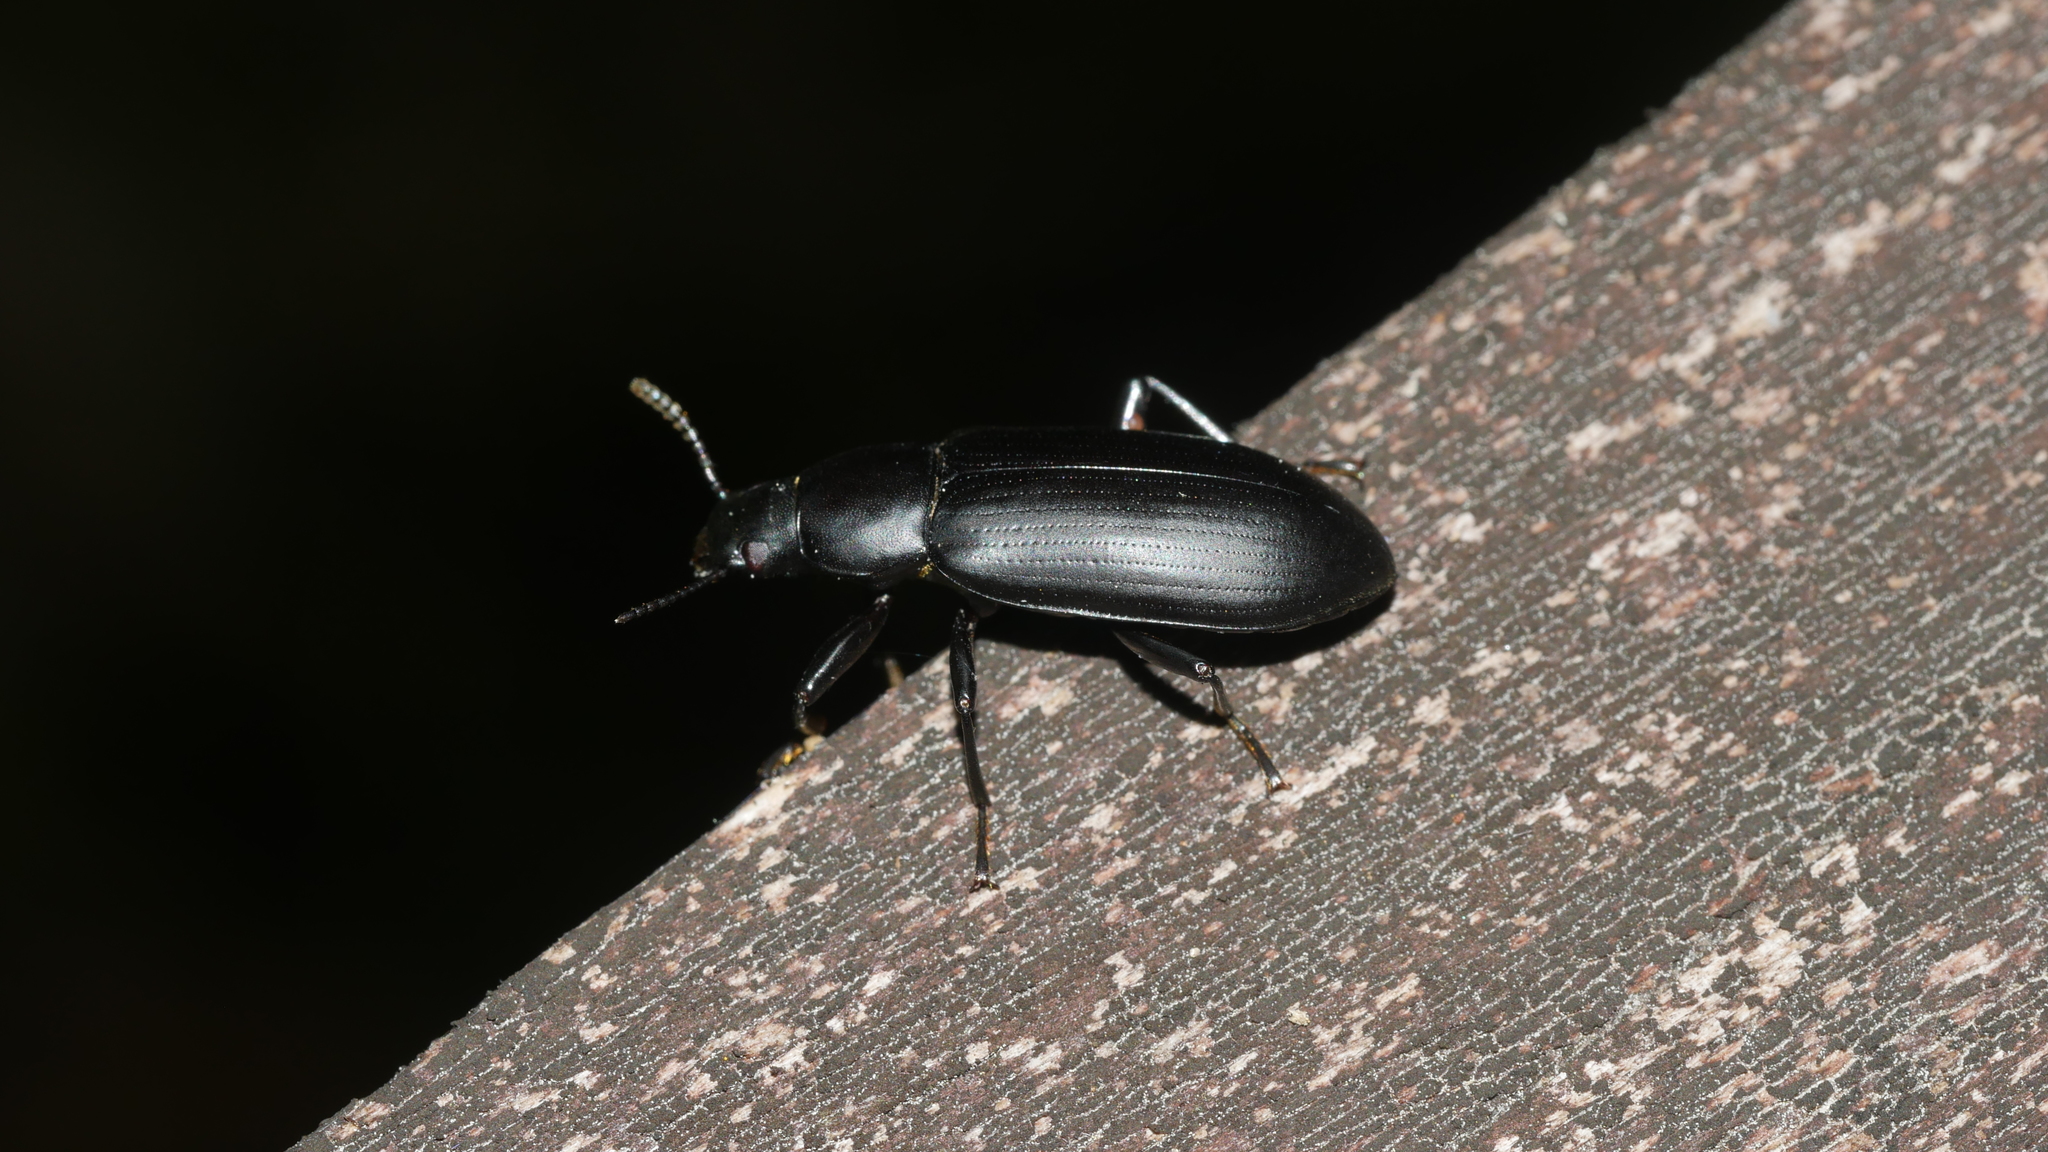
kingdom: Animalia
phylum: Arthropoda
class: Insecta
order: Coleoptera
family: Tenebrionidae
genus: Alobates
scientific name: Alobates
